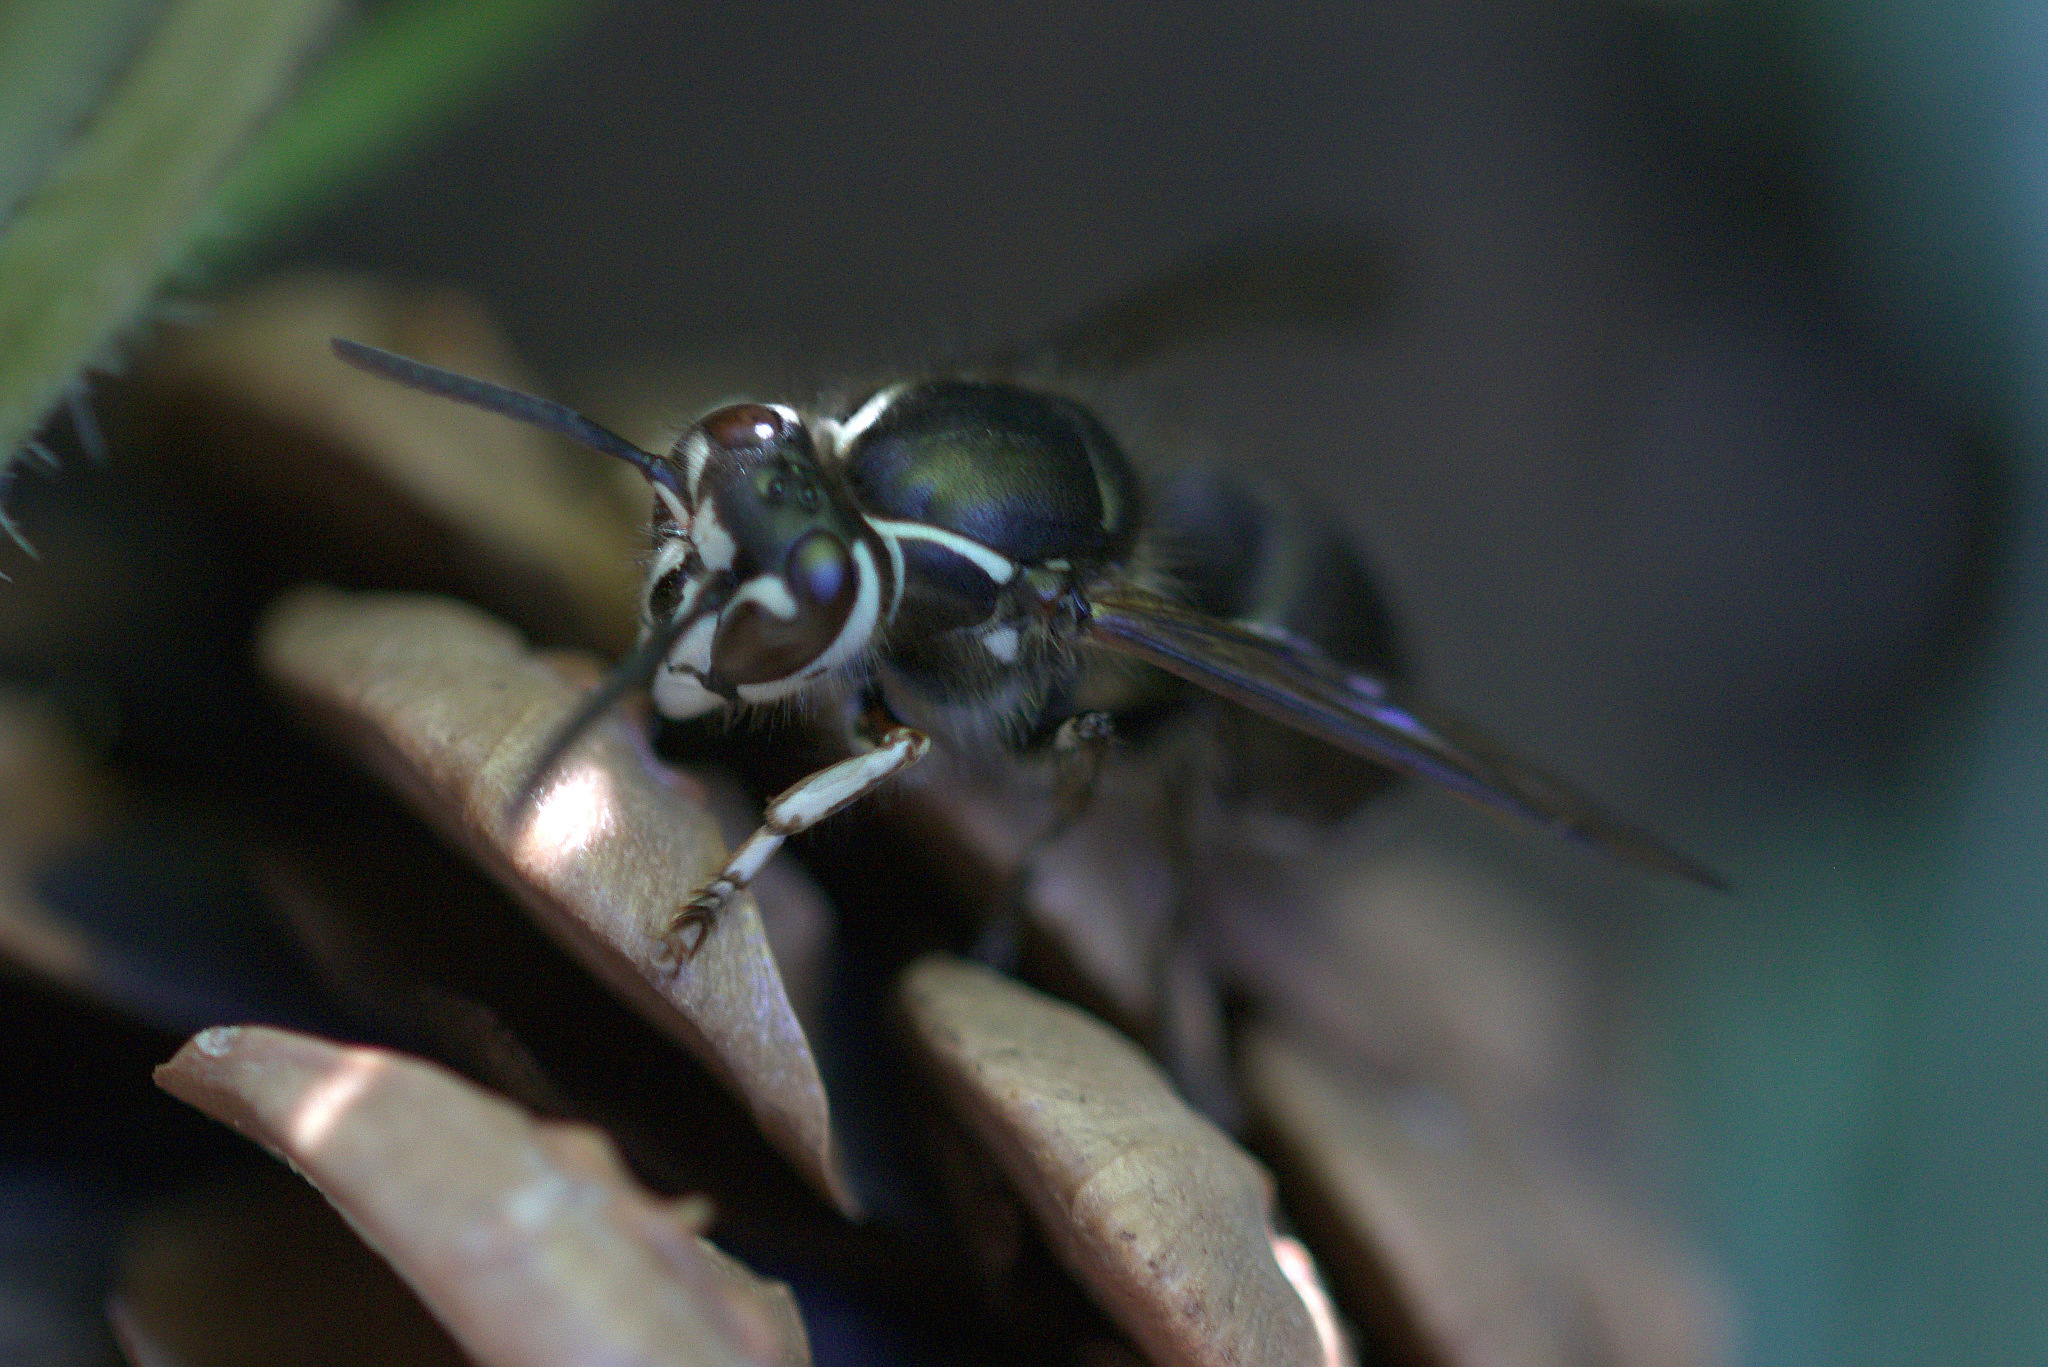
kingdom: Animalia
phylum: Arthropoda
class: Insecta
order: Hymenoptera
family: Vespidae
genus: Dolichovespula
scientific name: Dolichovespula maculata
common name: Bald-faced hornet
